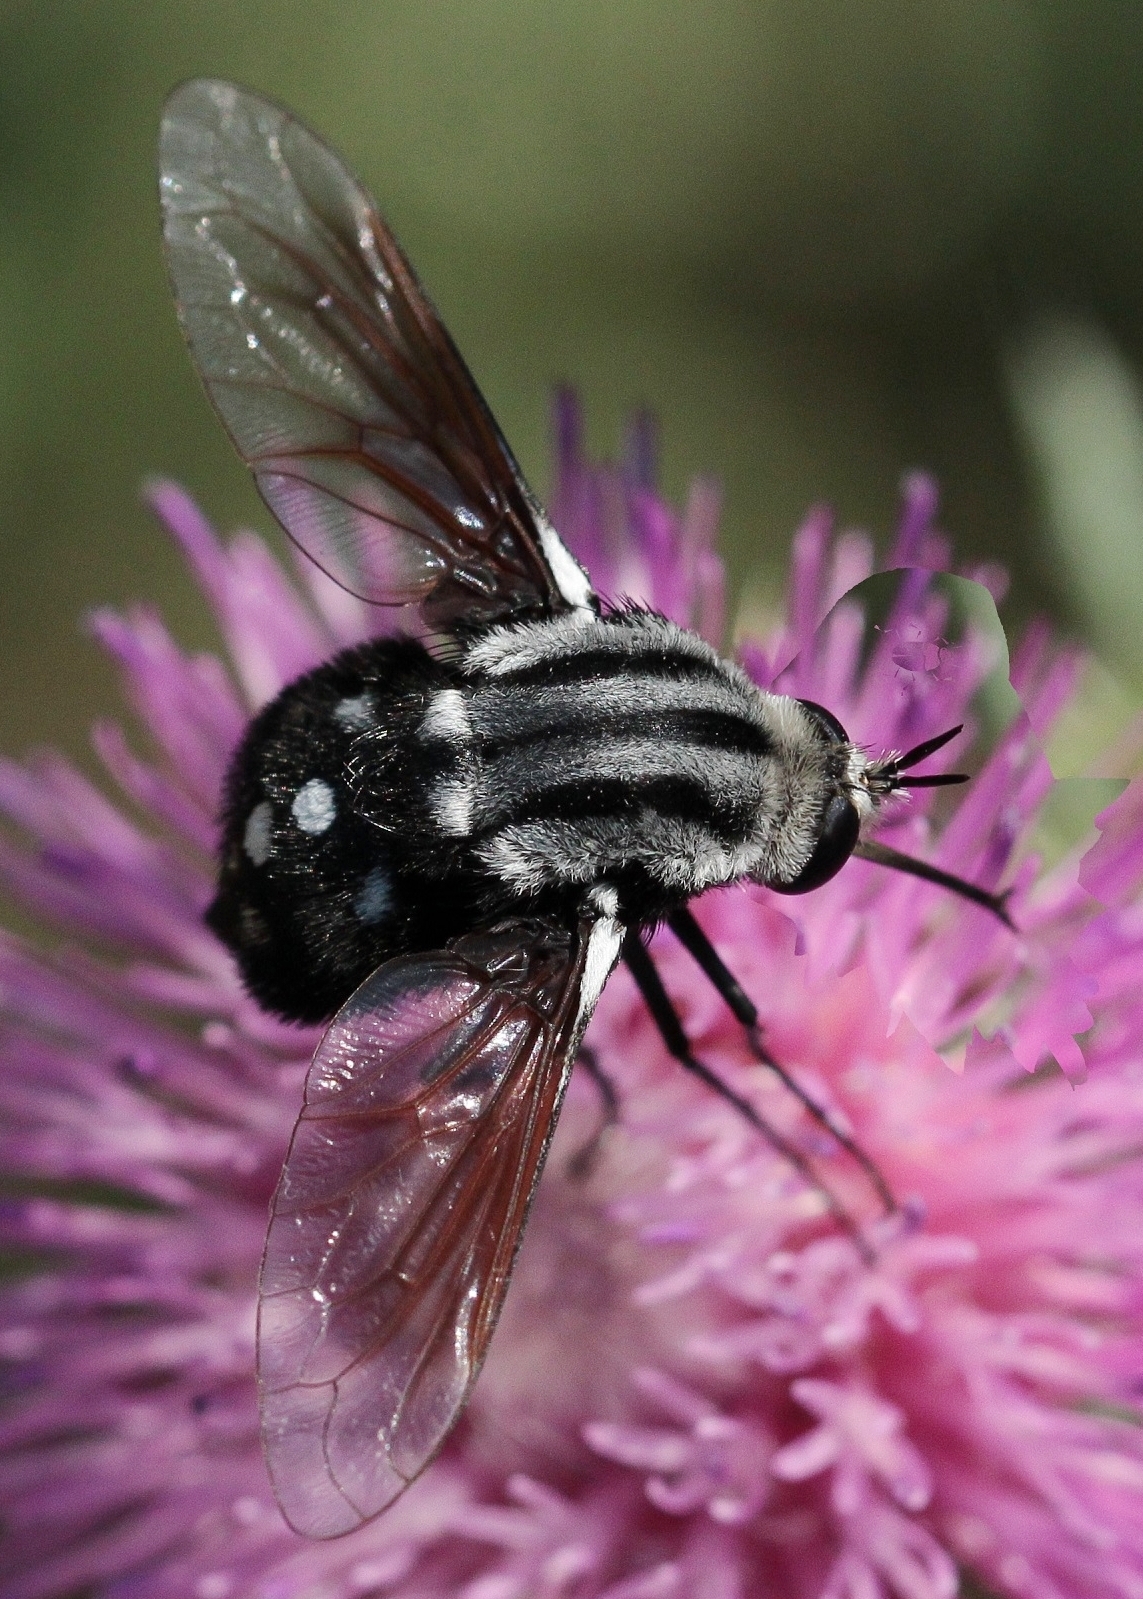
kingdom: Animalia
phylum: Arthropoda
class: Insecta
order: Diptera
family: Bombyliidae
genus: Bombomyia
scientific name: Bombomyia vertebralis
